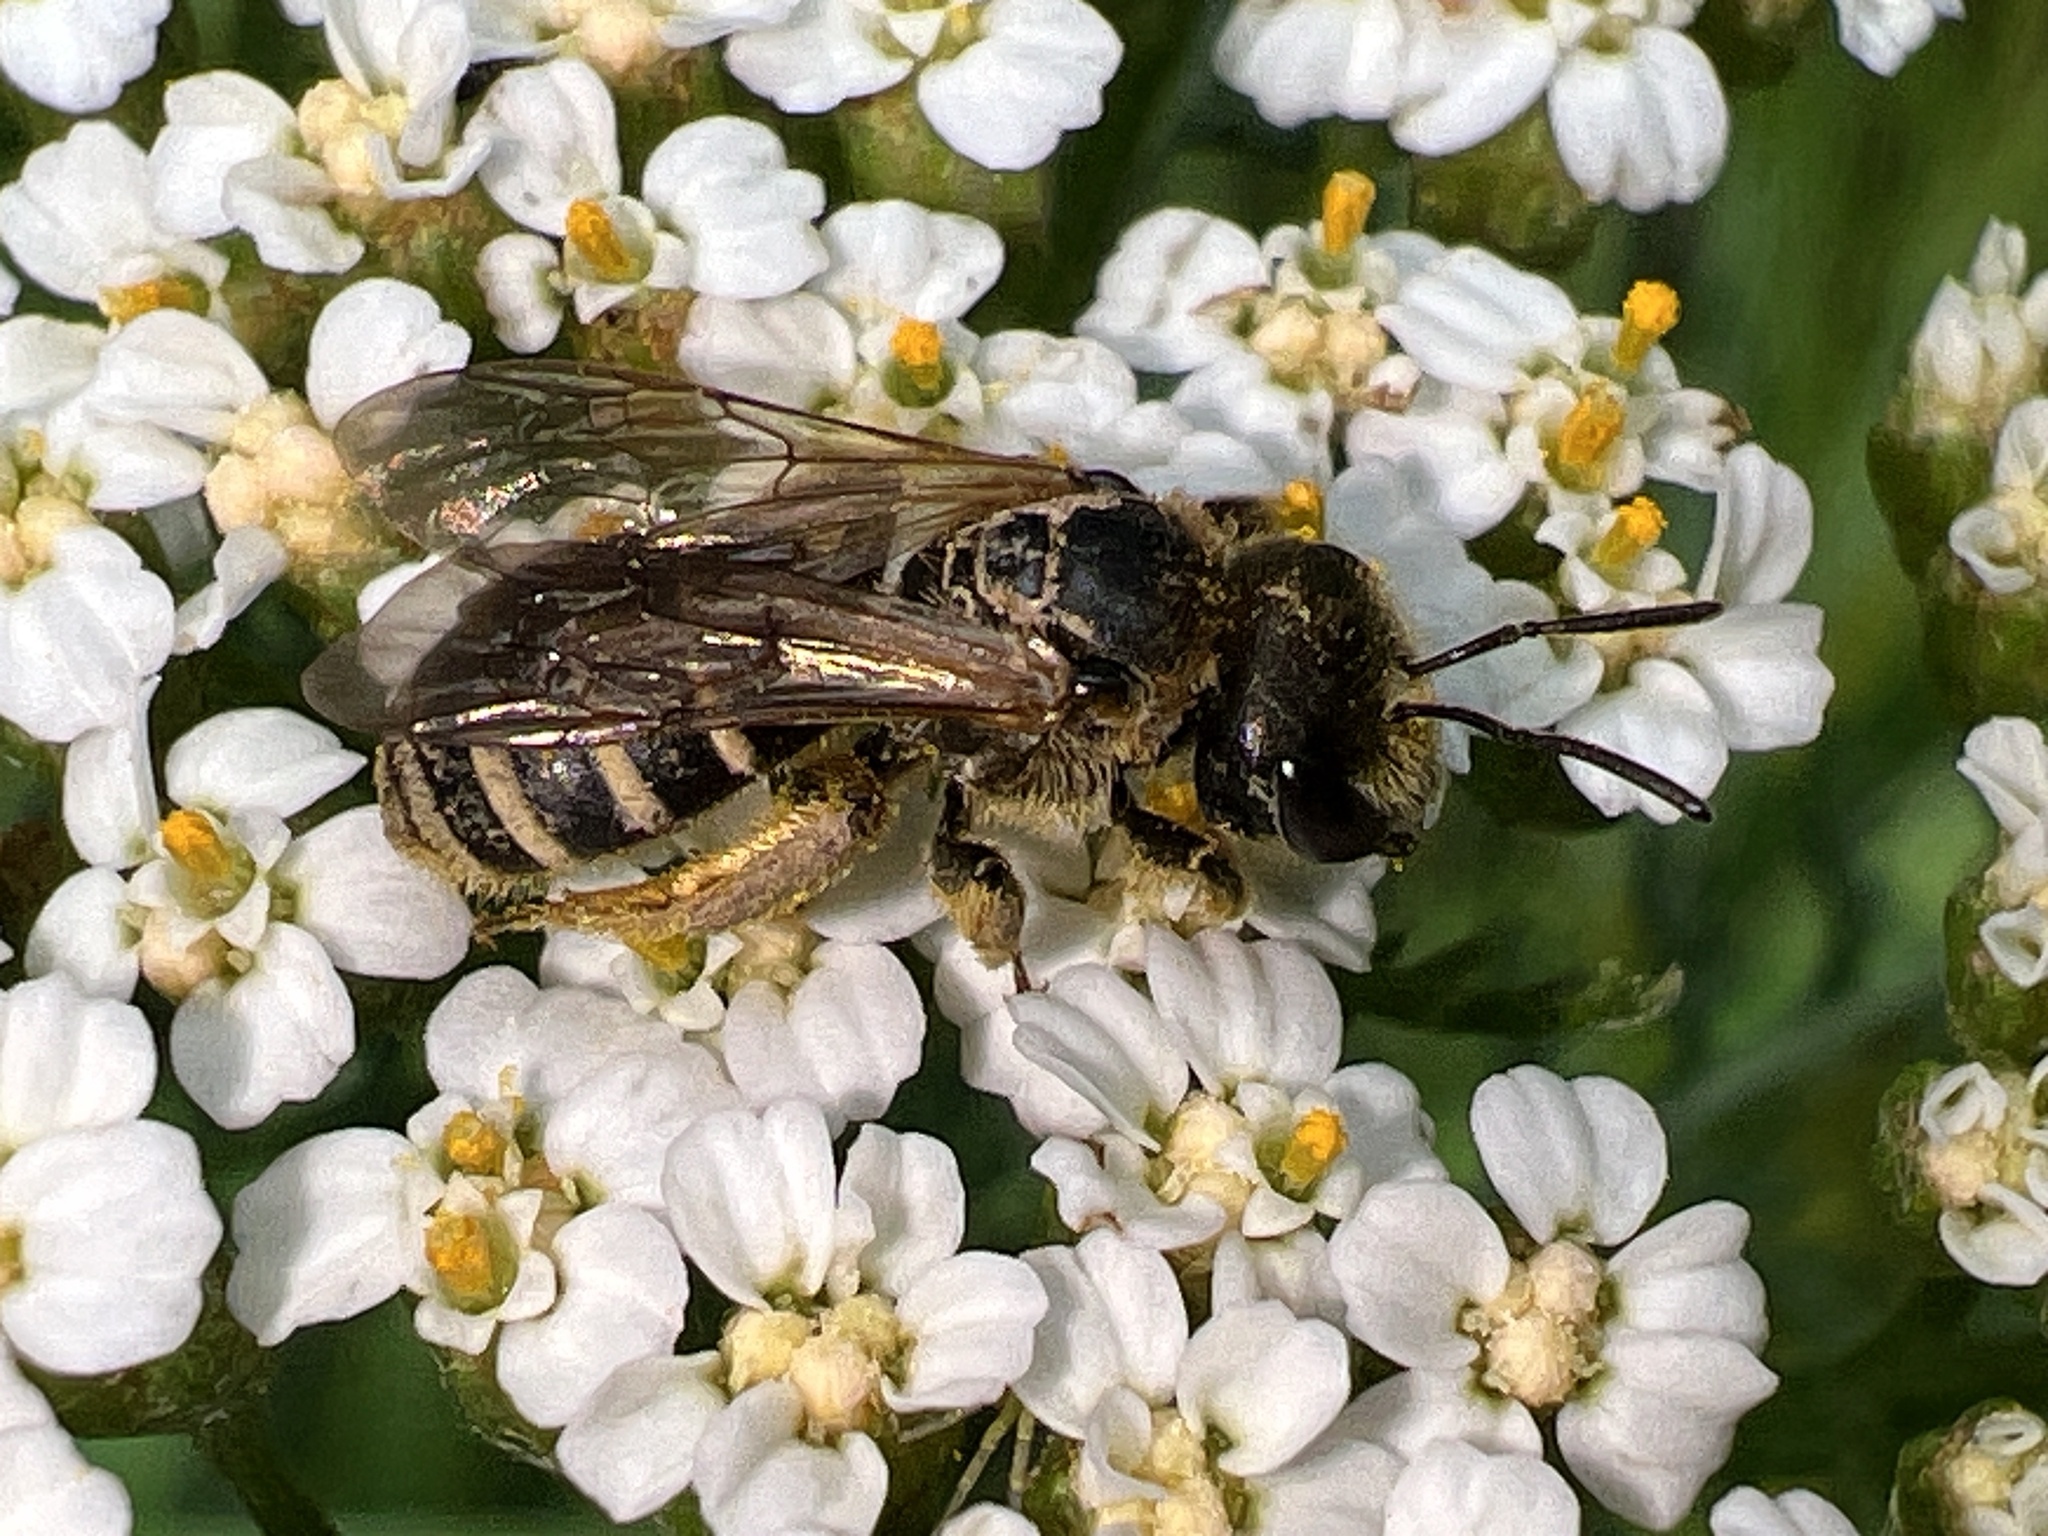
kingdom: Animalia
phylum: Arthropoda
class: Insecta
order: Hymenoptera
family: Halictidae
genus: Halictus
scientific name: Halictus ligatus
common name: Ligated furrow bee
